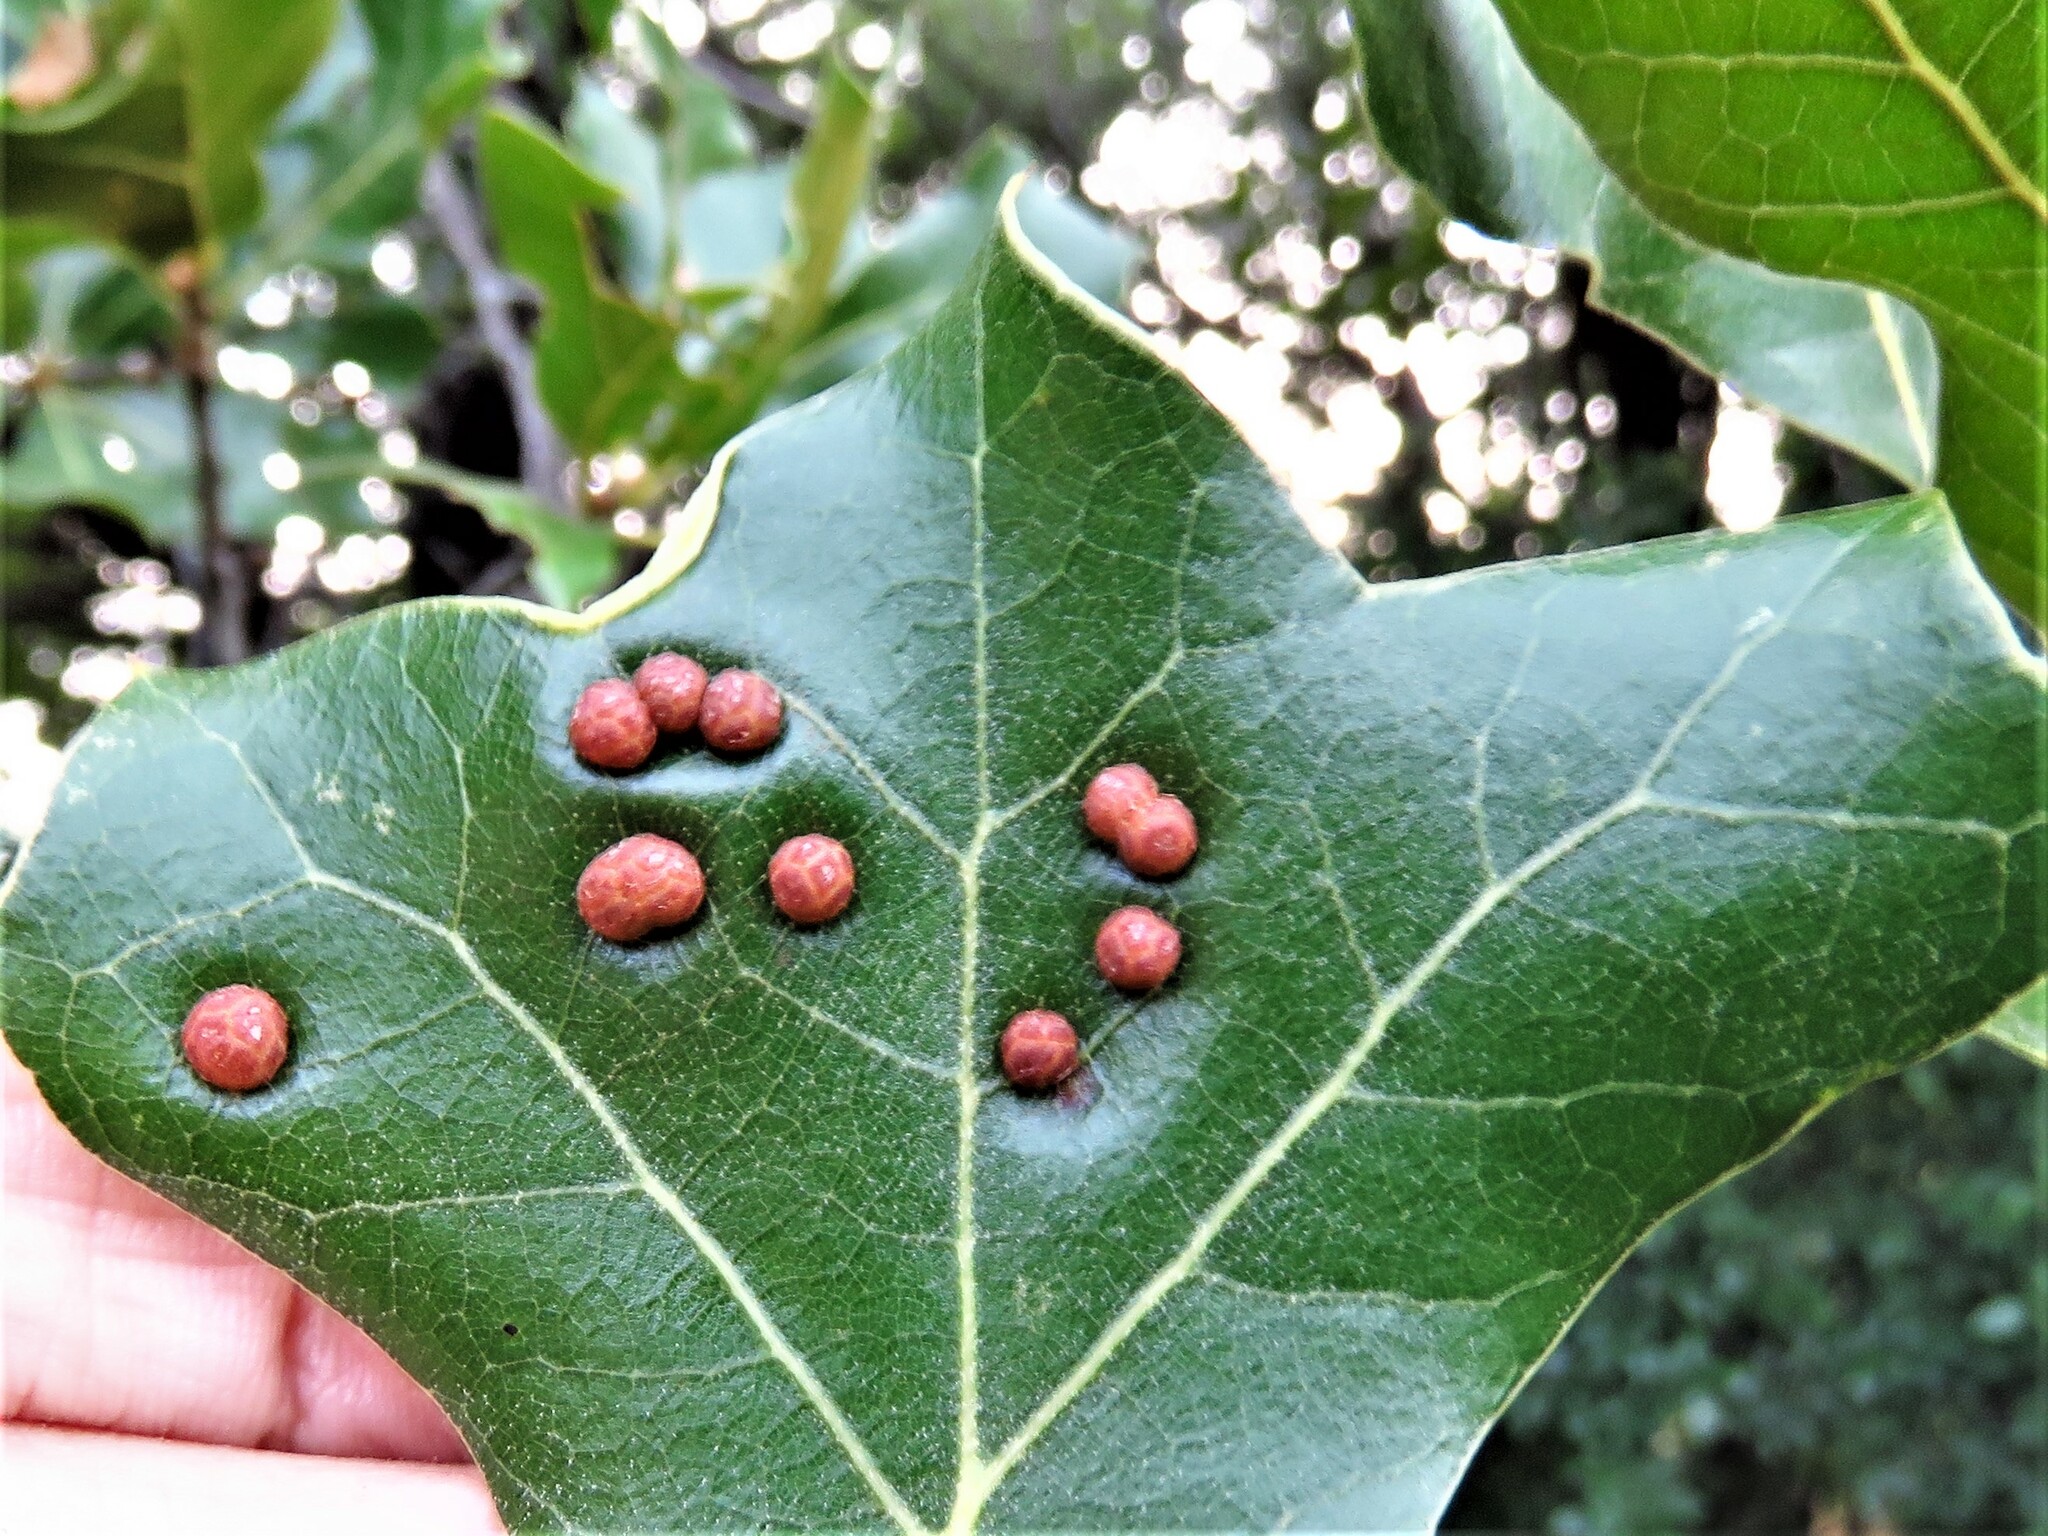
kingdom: Animalia
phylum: Arthropoda
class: Insecta
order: Diptera
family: Cecidomyiidae
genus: Polystepha
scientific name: Polystepha pilulae
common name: Oak leaf gall midge
